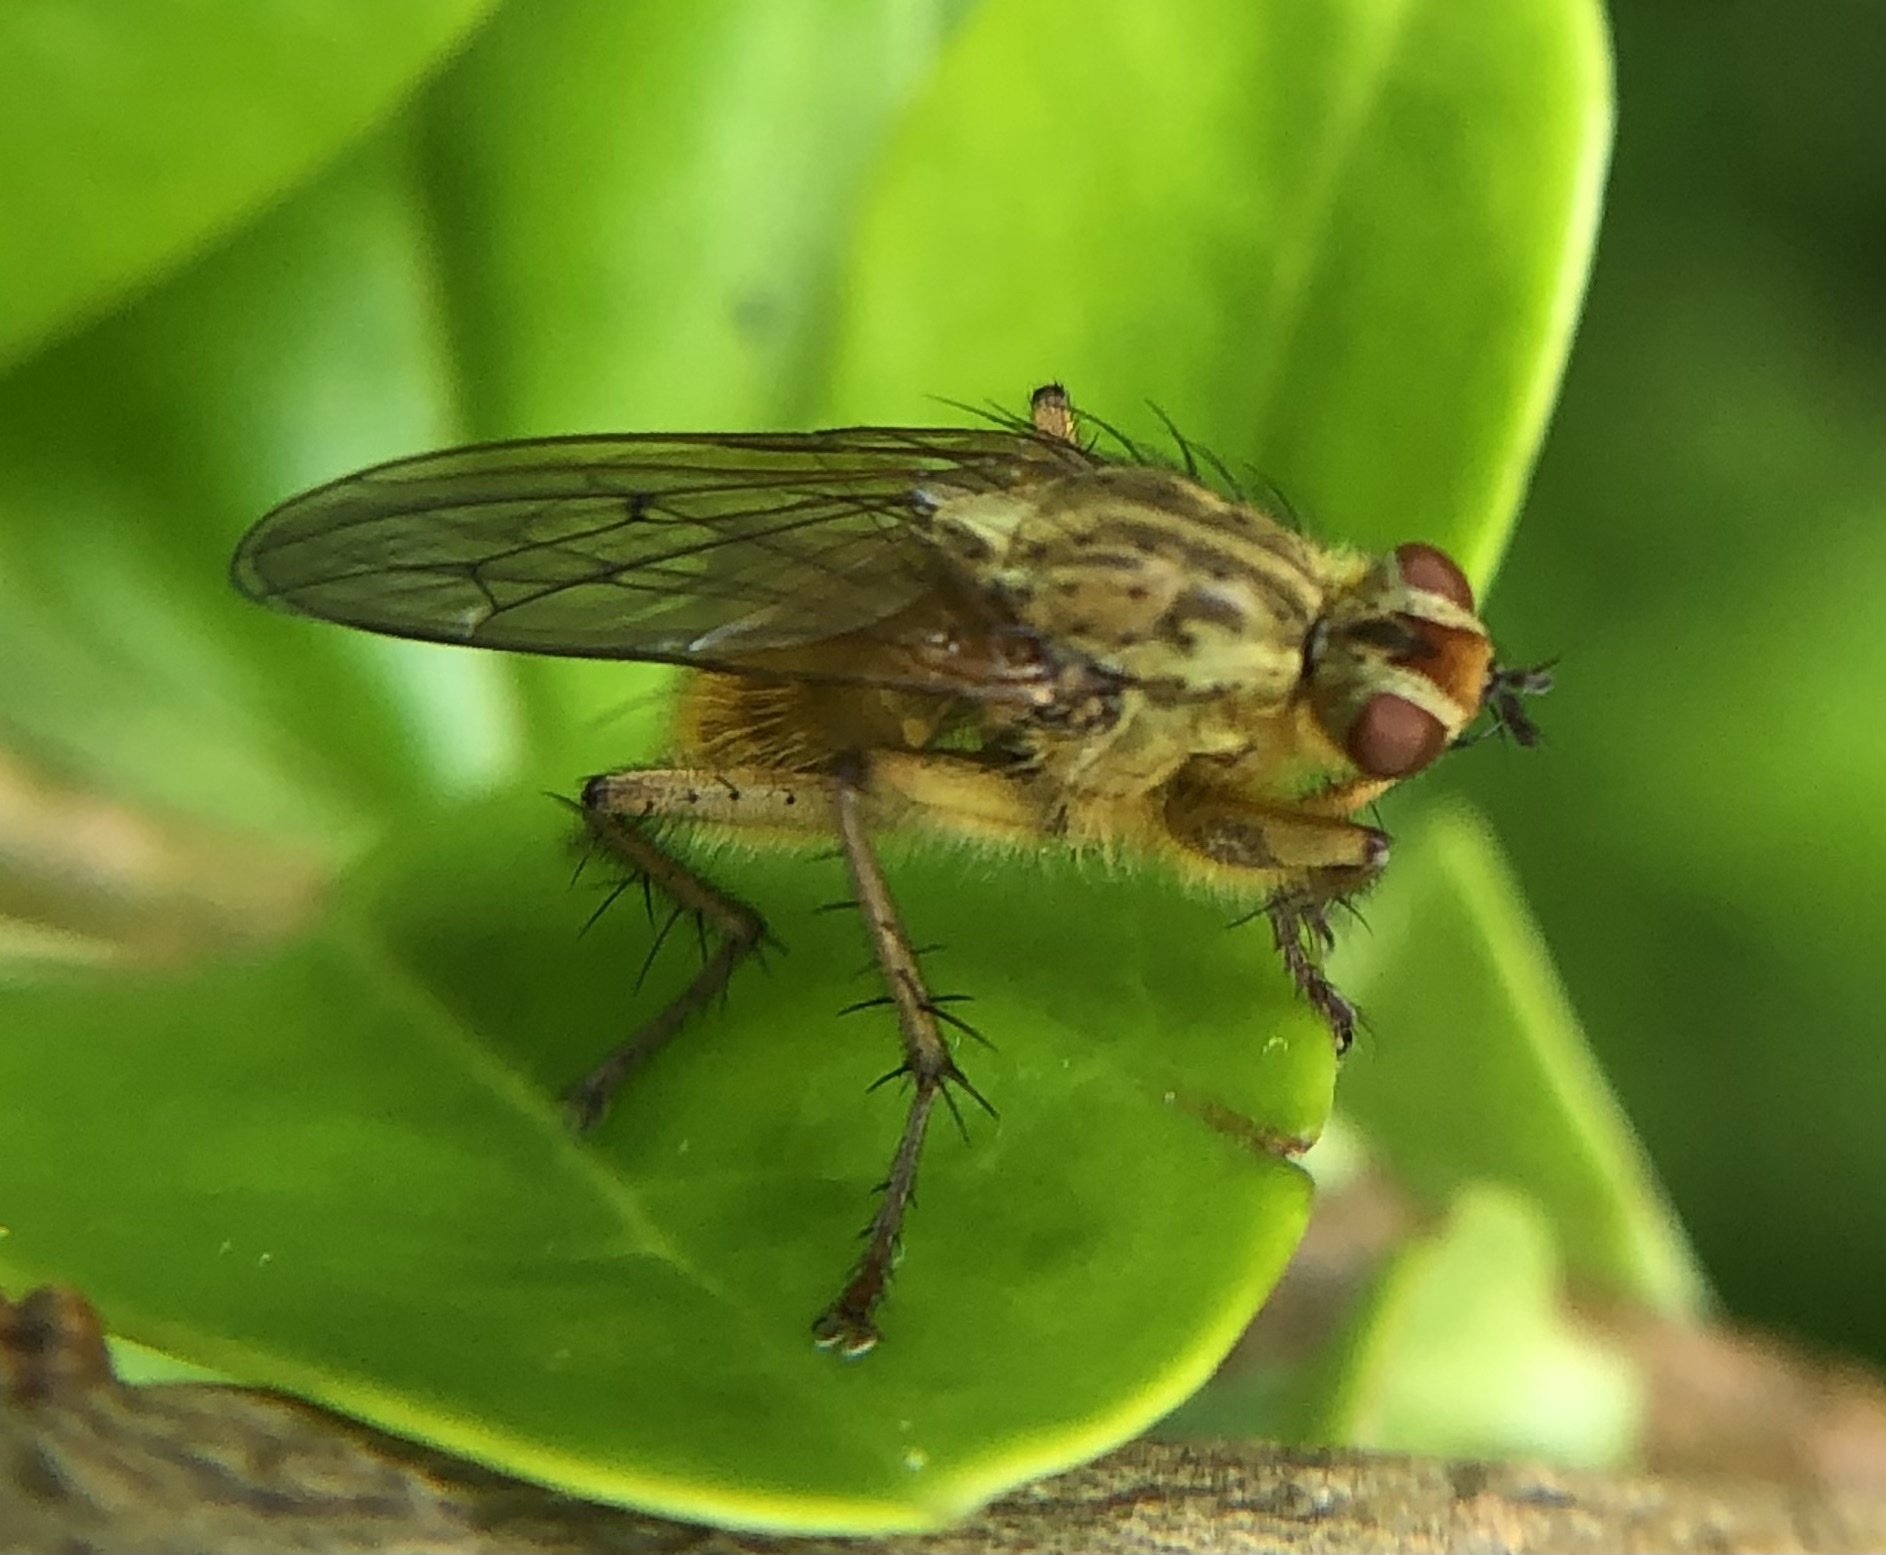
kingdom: Animalia
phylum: Arthropoda
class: Insecta
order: Diptera
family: Scathophagidae
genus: Scathophaga
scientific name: Scathophaga stercoraria
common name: Yellow dung fly
